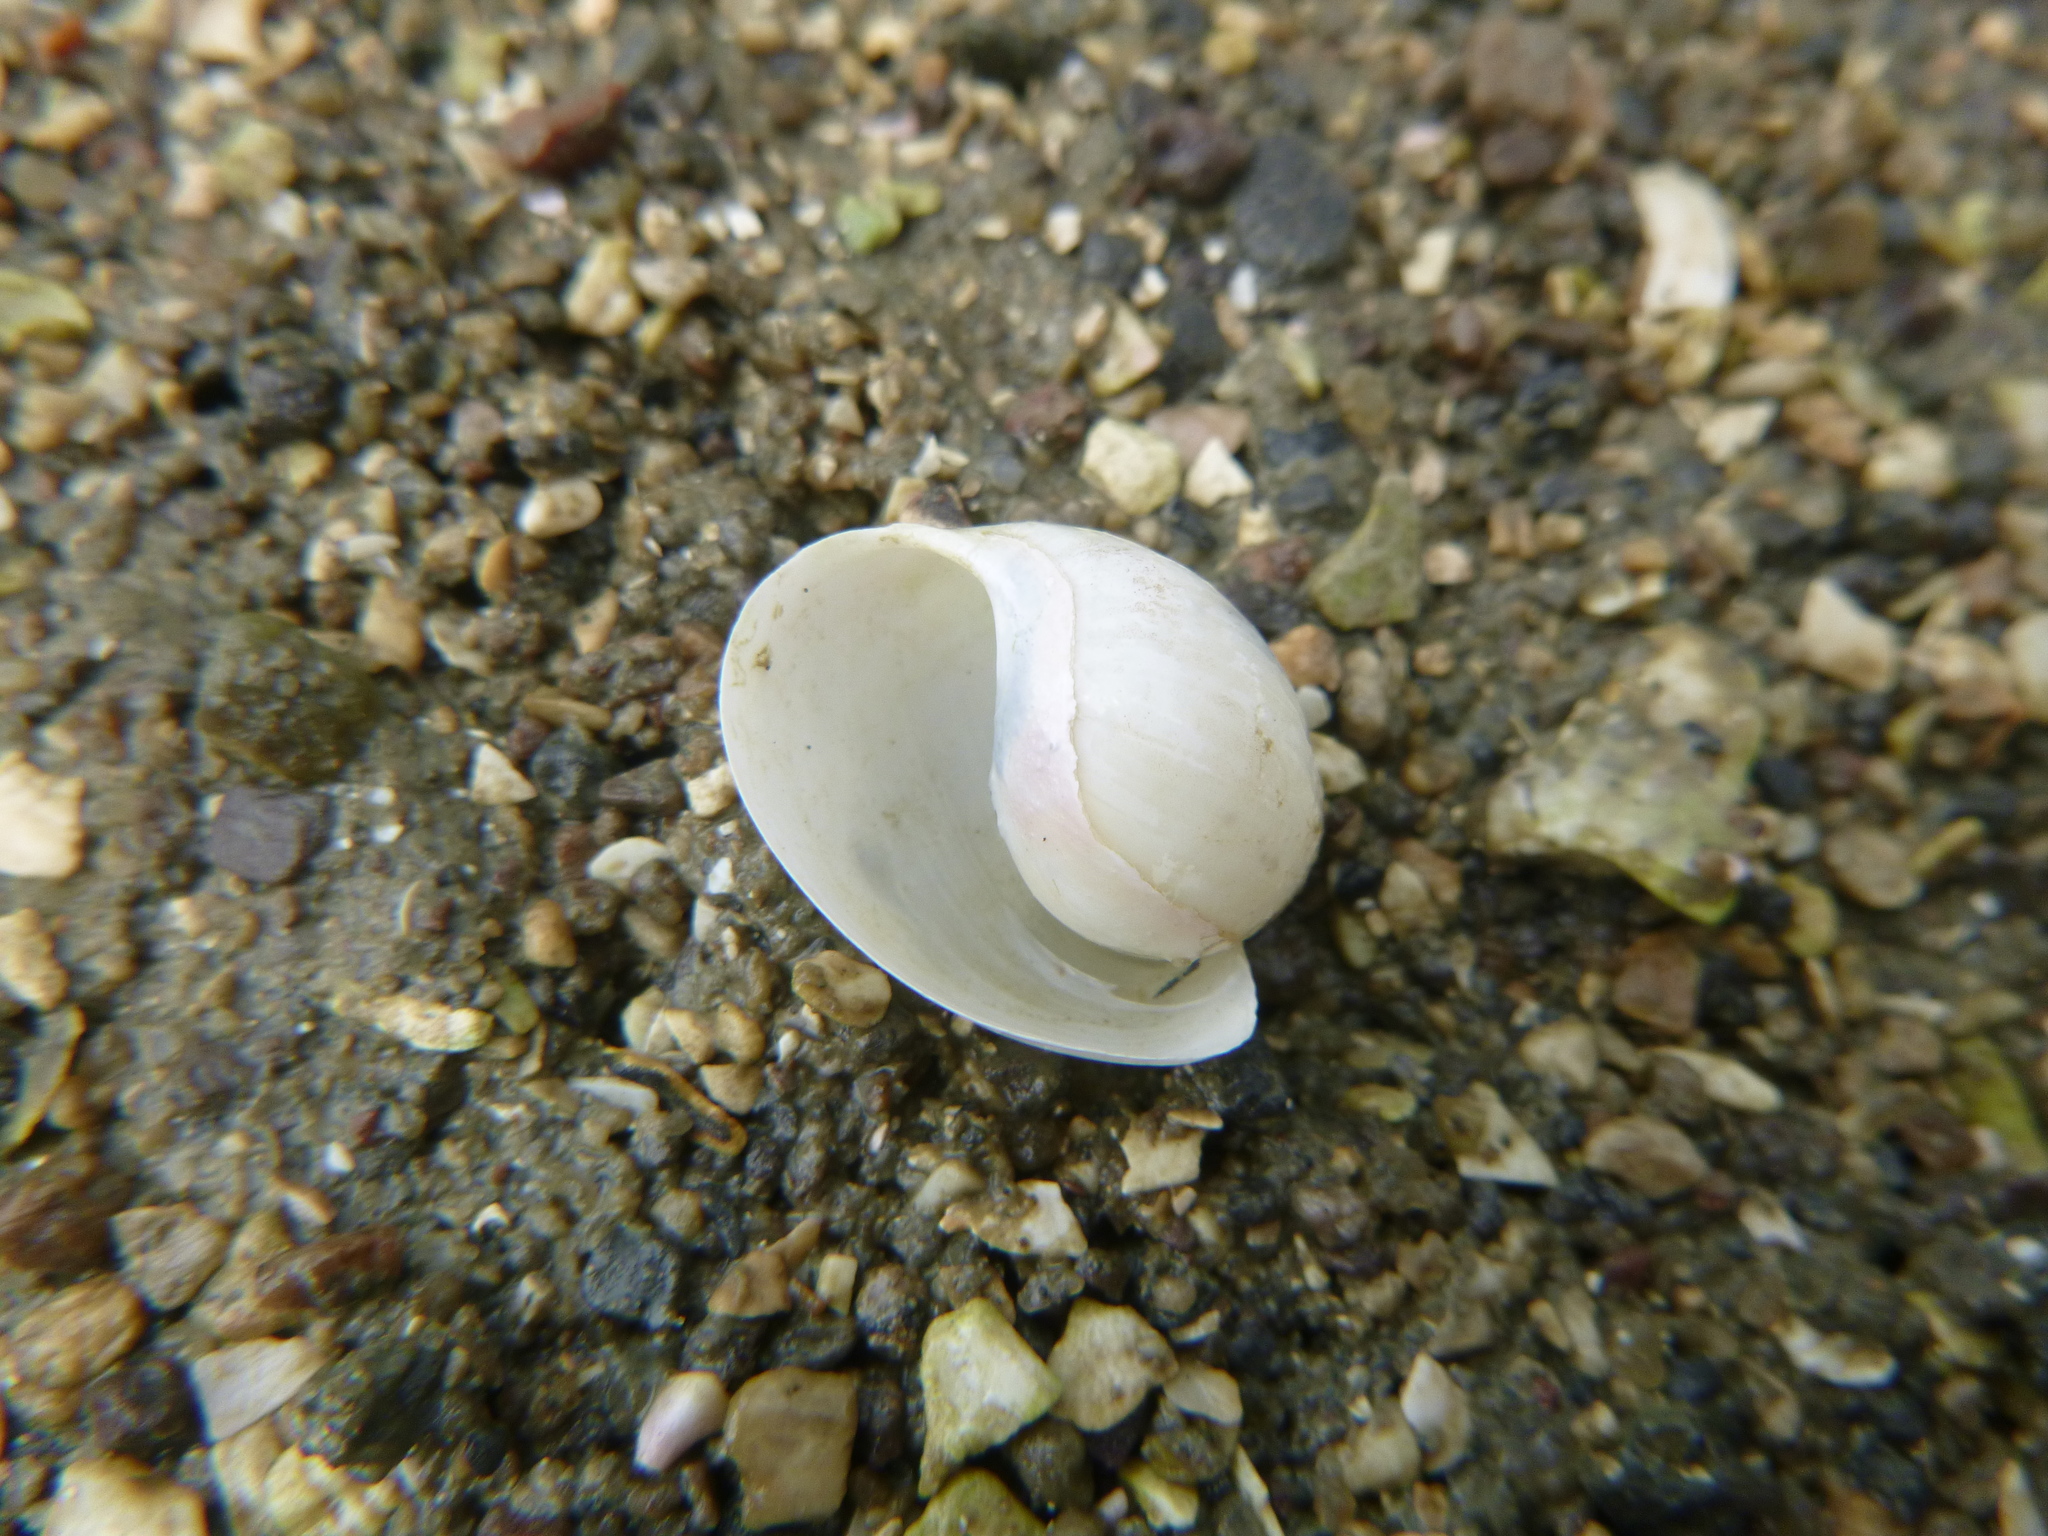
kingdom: Animalia
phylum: Mollusca
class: Gastropoda
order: Cephalaspidea
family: Haminoeidae
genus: Papawera
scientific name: Papawera zelandiae
